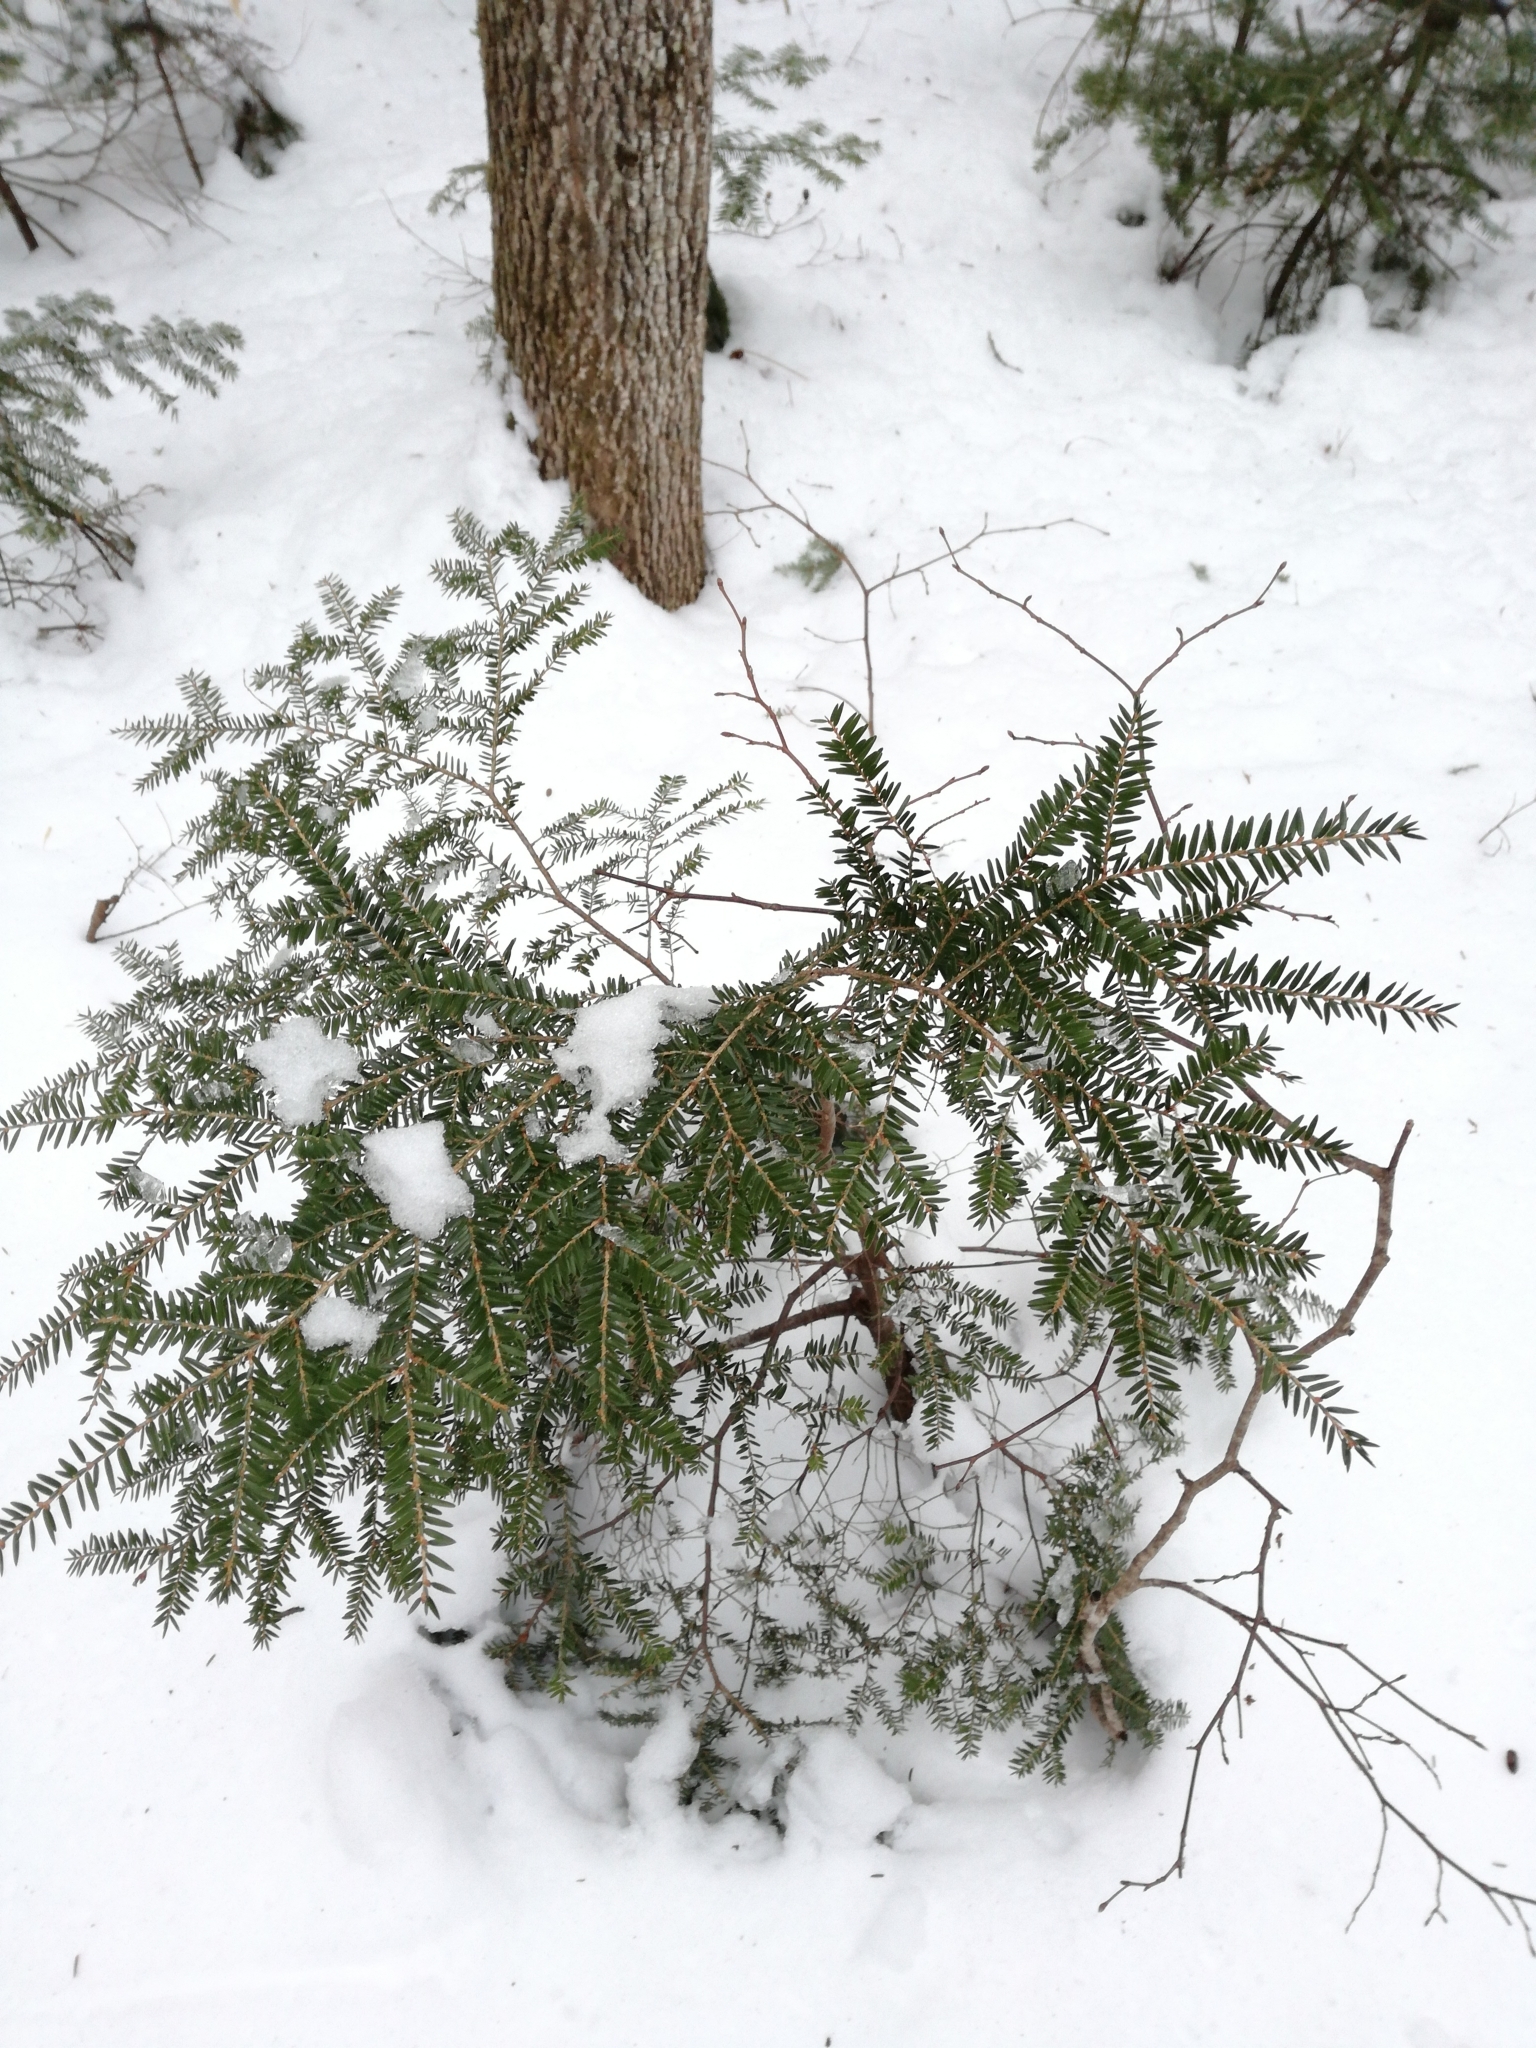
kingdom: Plantae
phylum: Tracheophyta
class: Pinopsida
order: Pinales
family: Pinaceae
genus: Tsuga
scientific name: Tsuga canadensis
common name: Eastern hemlock
